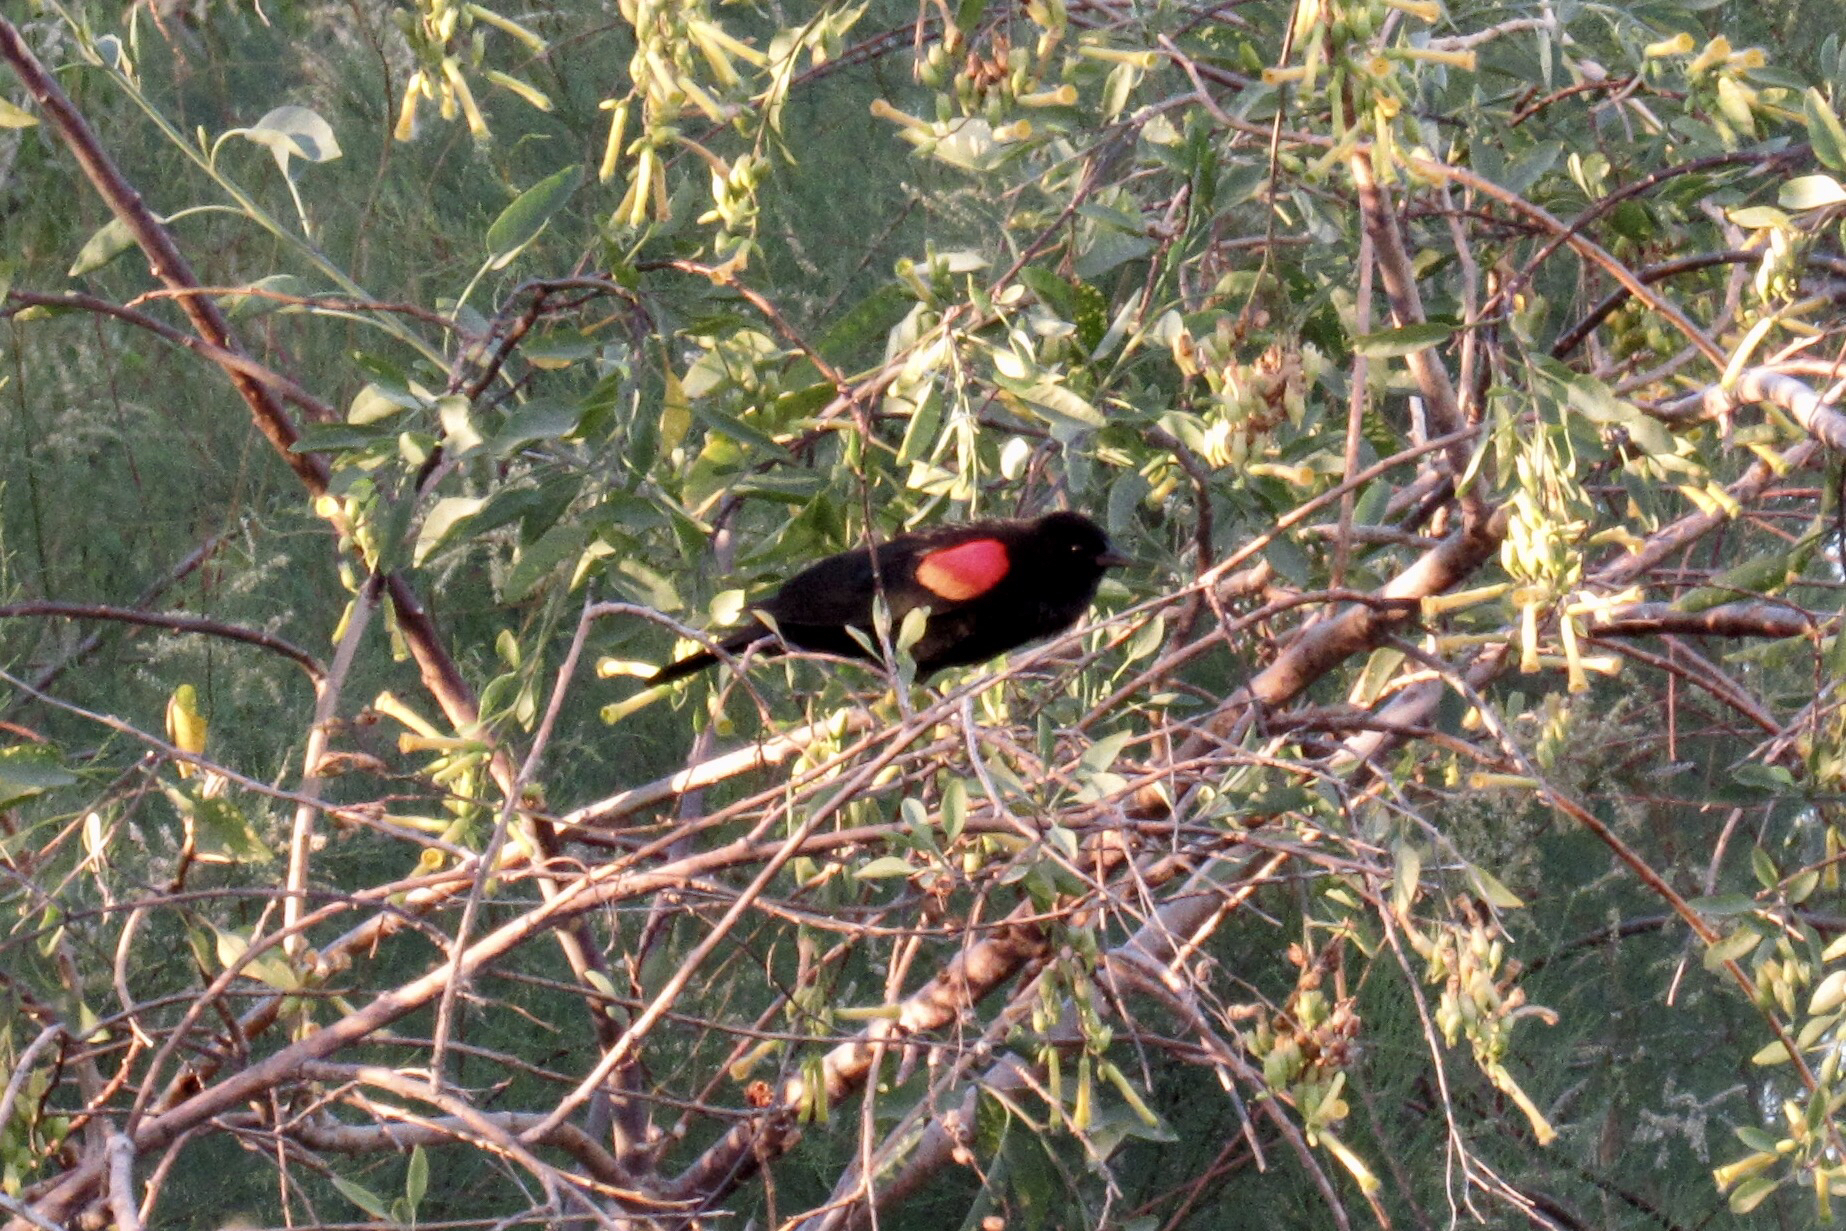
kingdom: Animalia
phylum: Chordata
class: Aves
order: Passeriformes
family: Icteridae
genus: Agelaius
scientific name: Agelaius phoeniceus
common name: Red-winged blackbird
